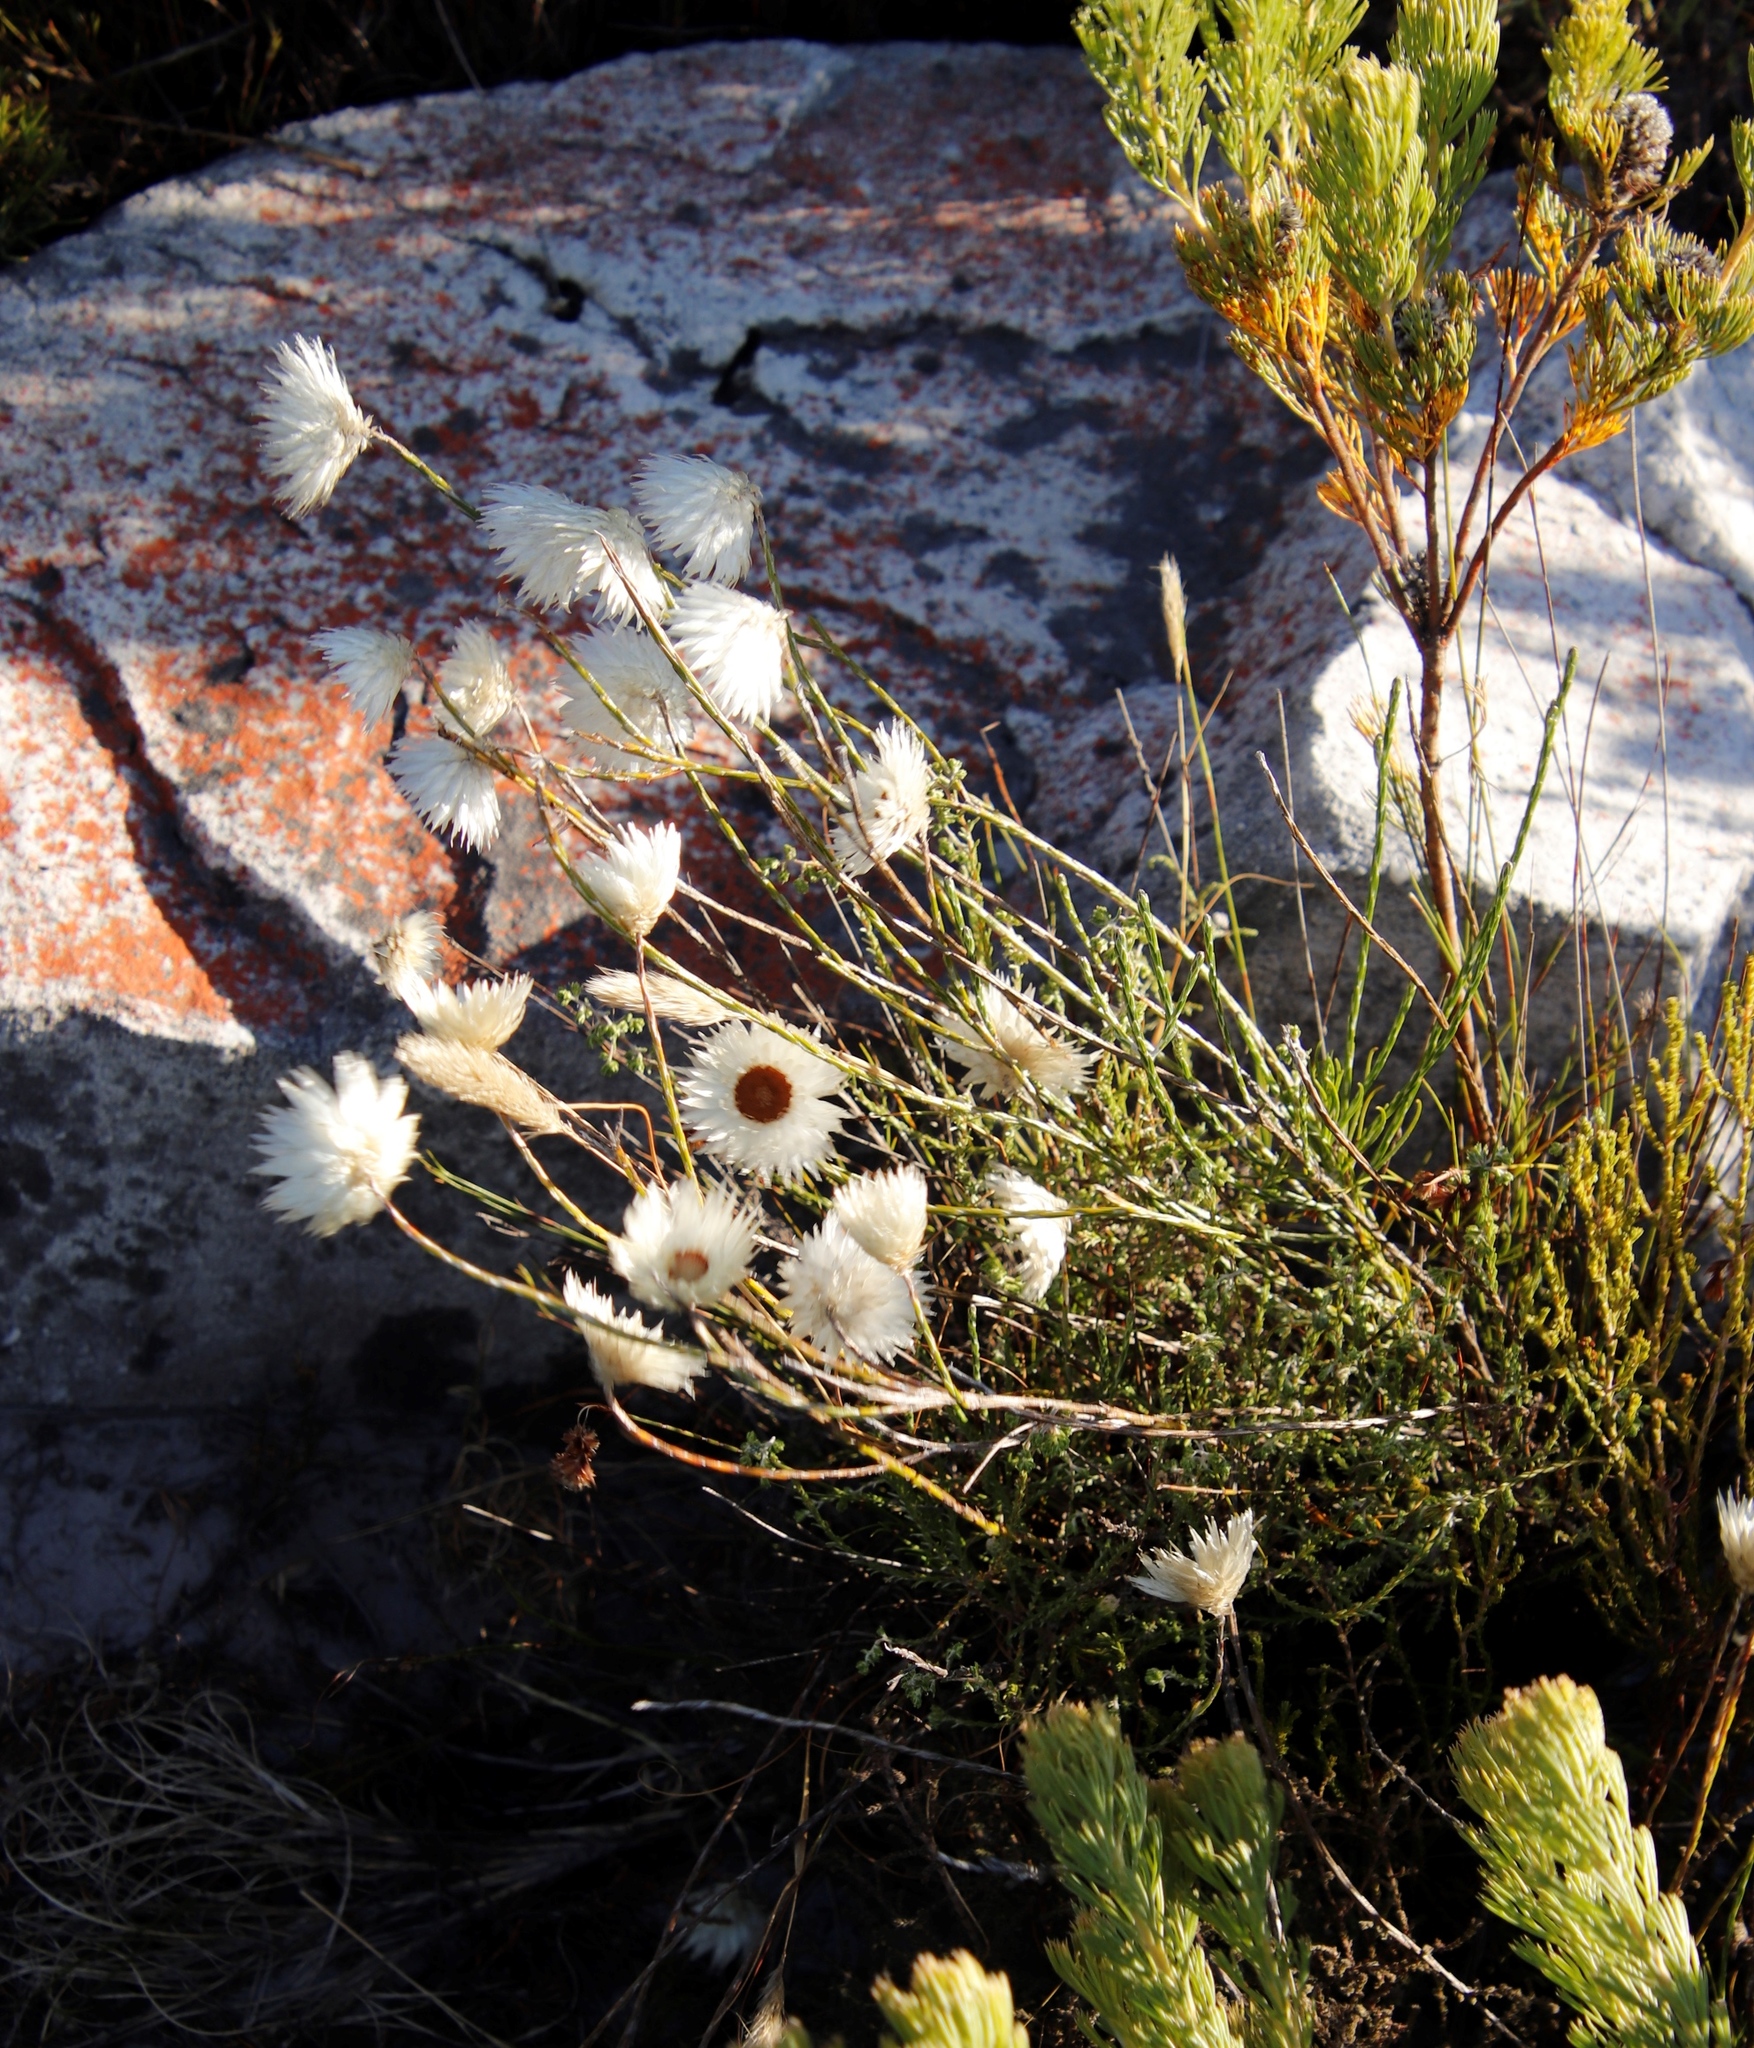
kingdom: Plantae
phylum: Tracheophyta
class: Magnoliopsida
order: Asterales
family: Asteraceae
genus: Edmondia
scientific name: Edmondia sesamoides
